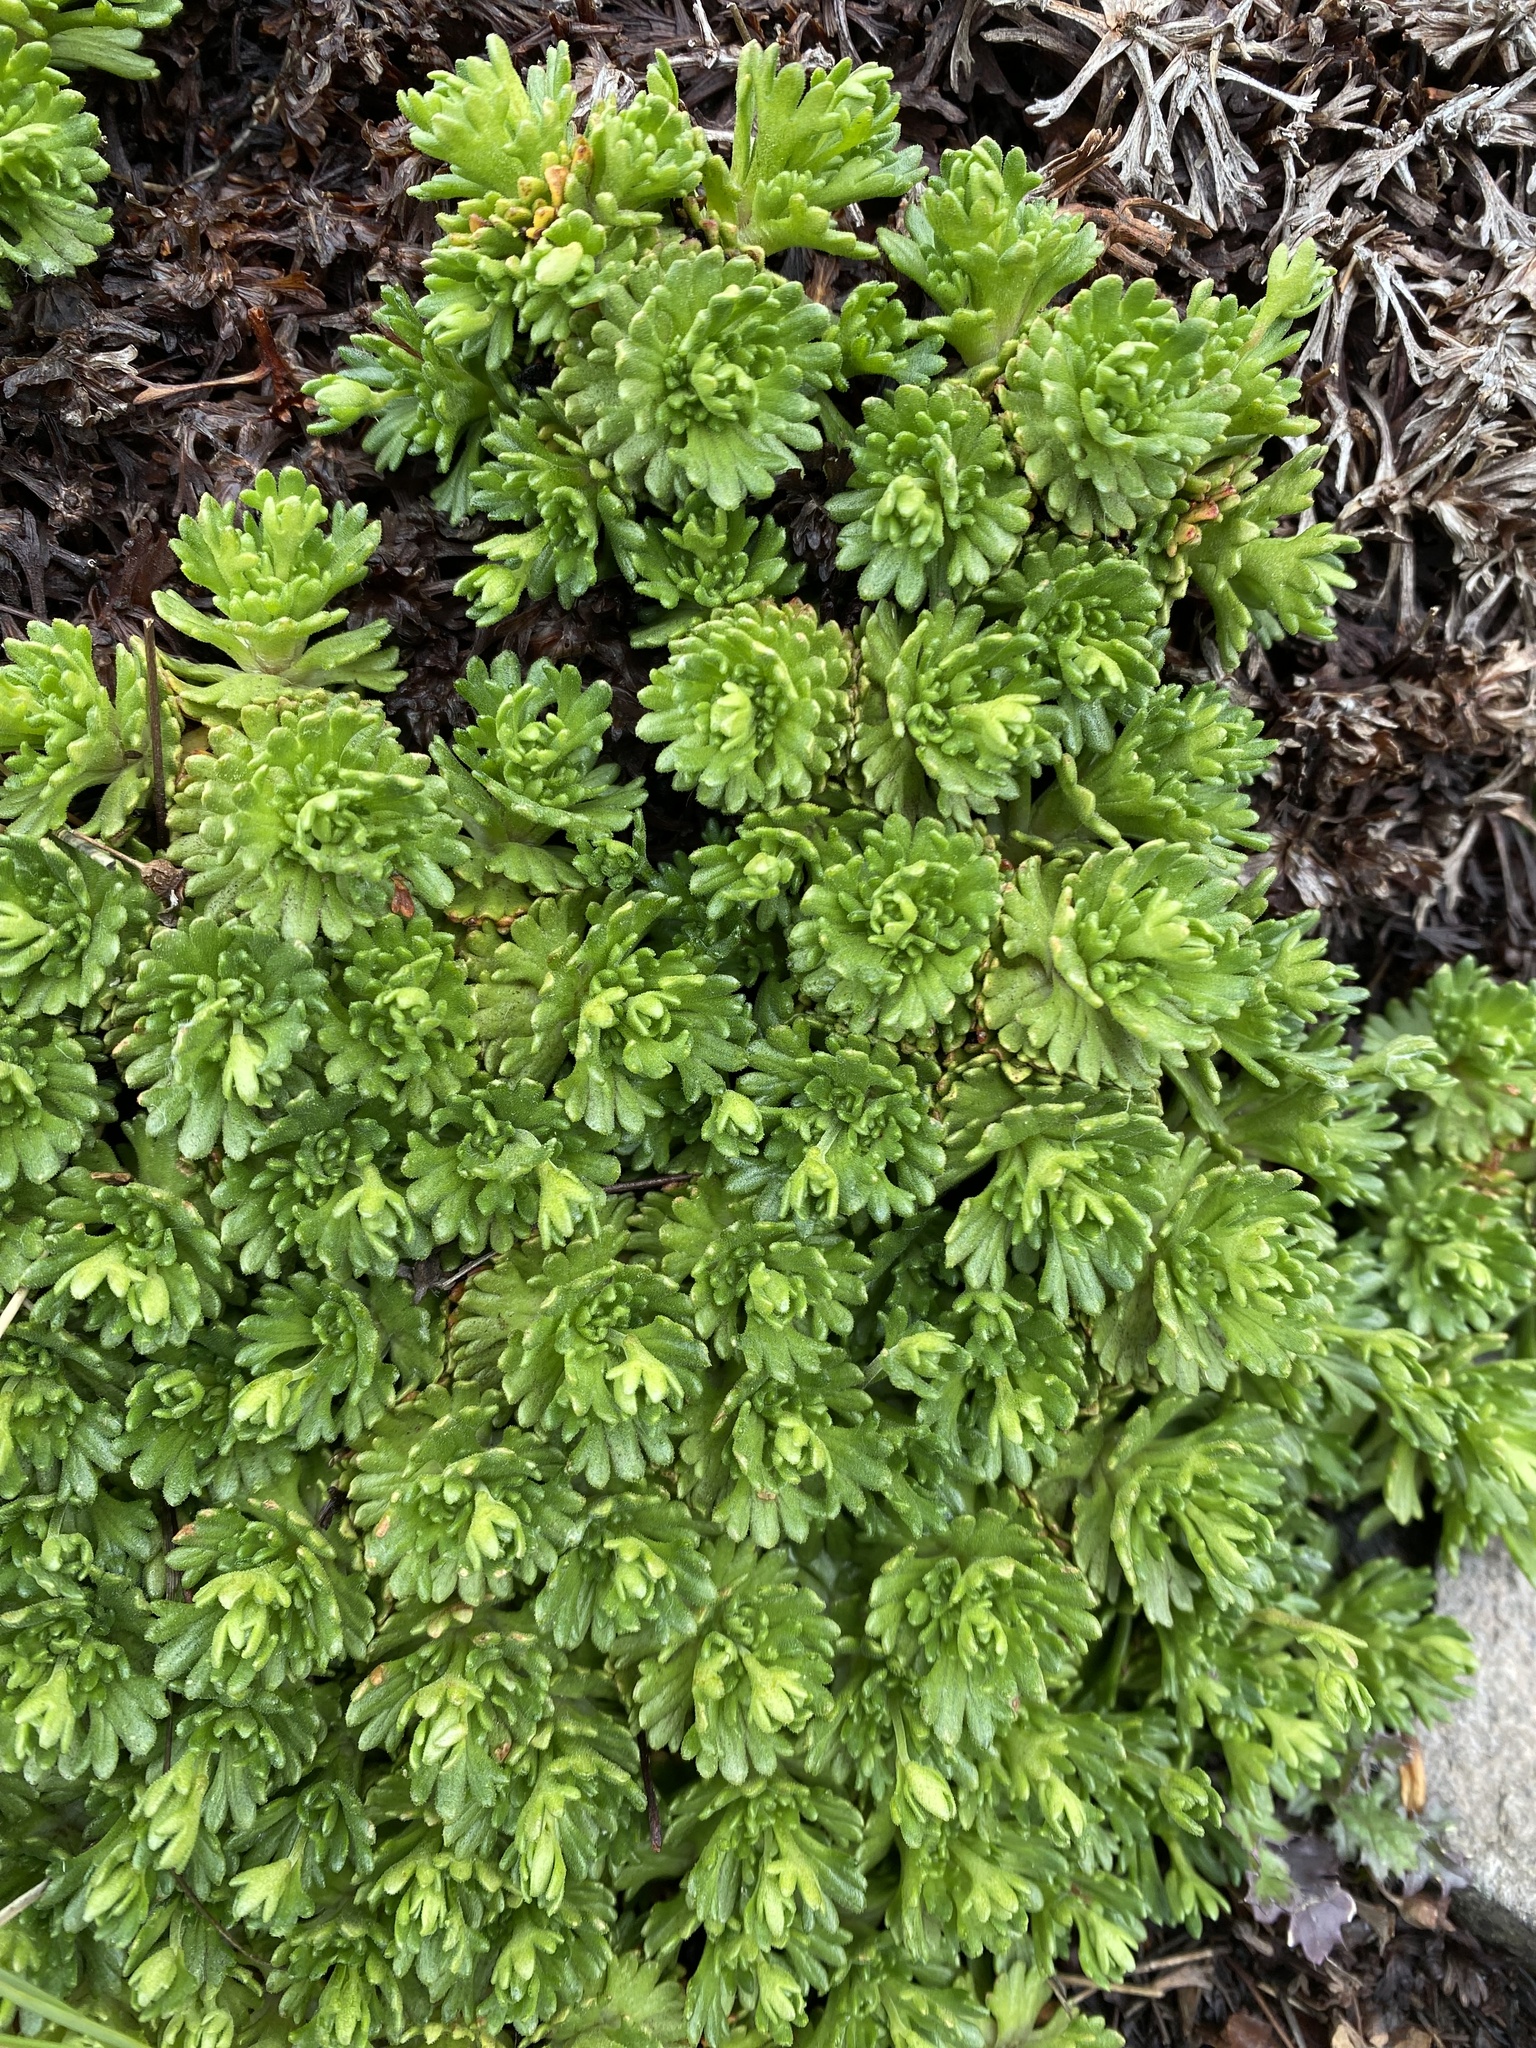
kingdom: Plantae
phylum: Tracheophyta
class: Magnoliopsida
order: Saxifragales
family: Saxifragaceae
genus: Saxifraga
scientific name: Saxifraga vayredana
